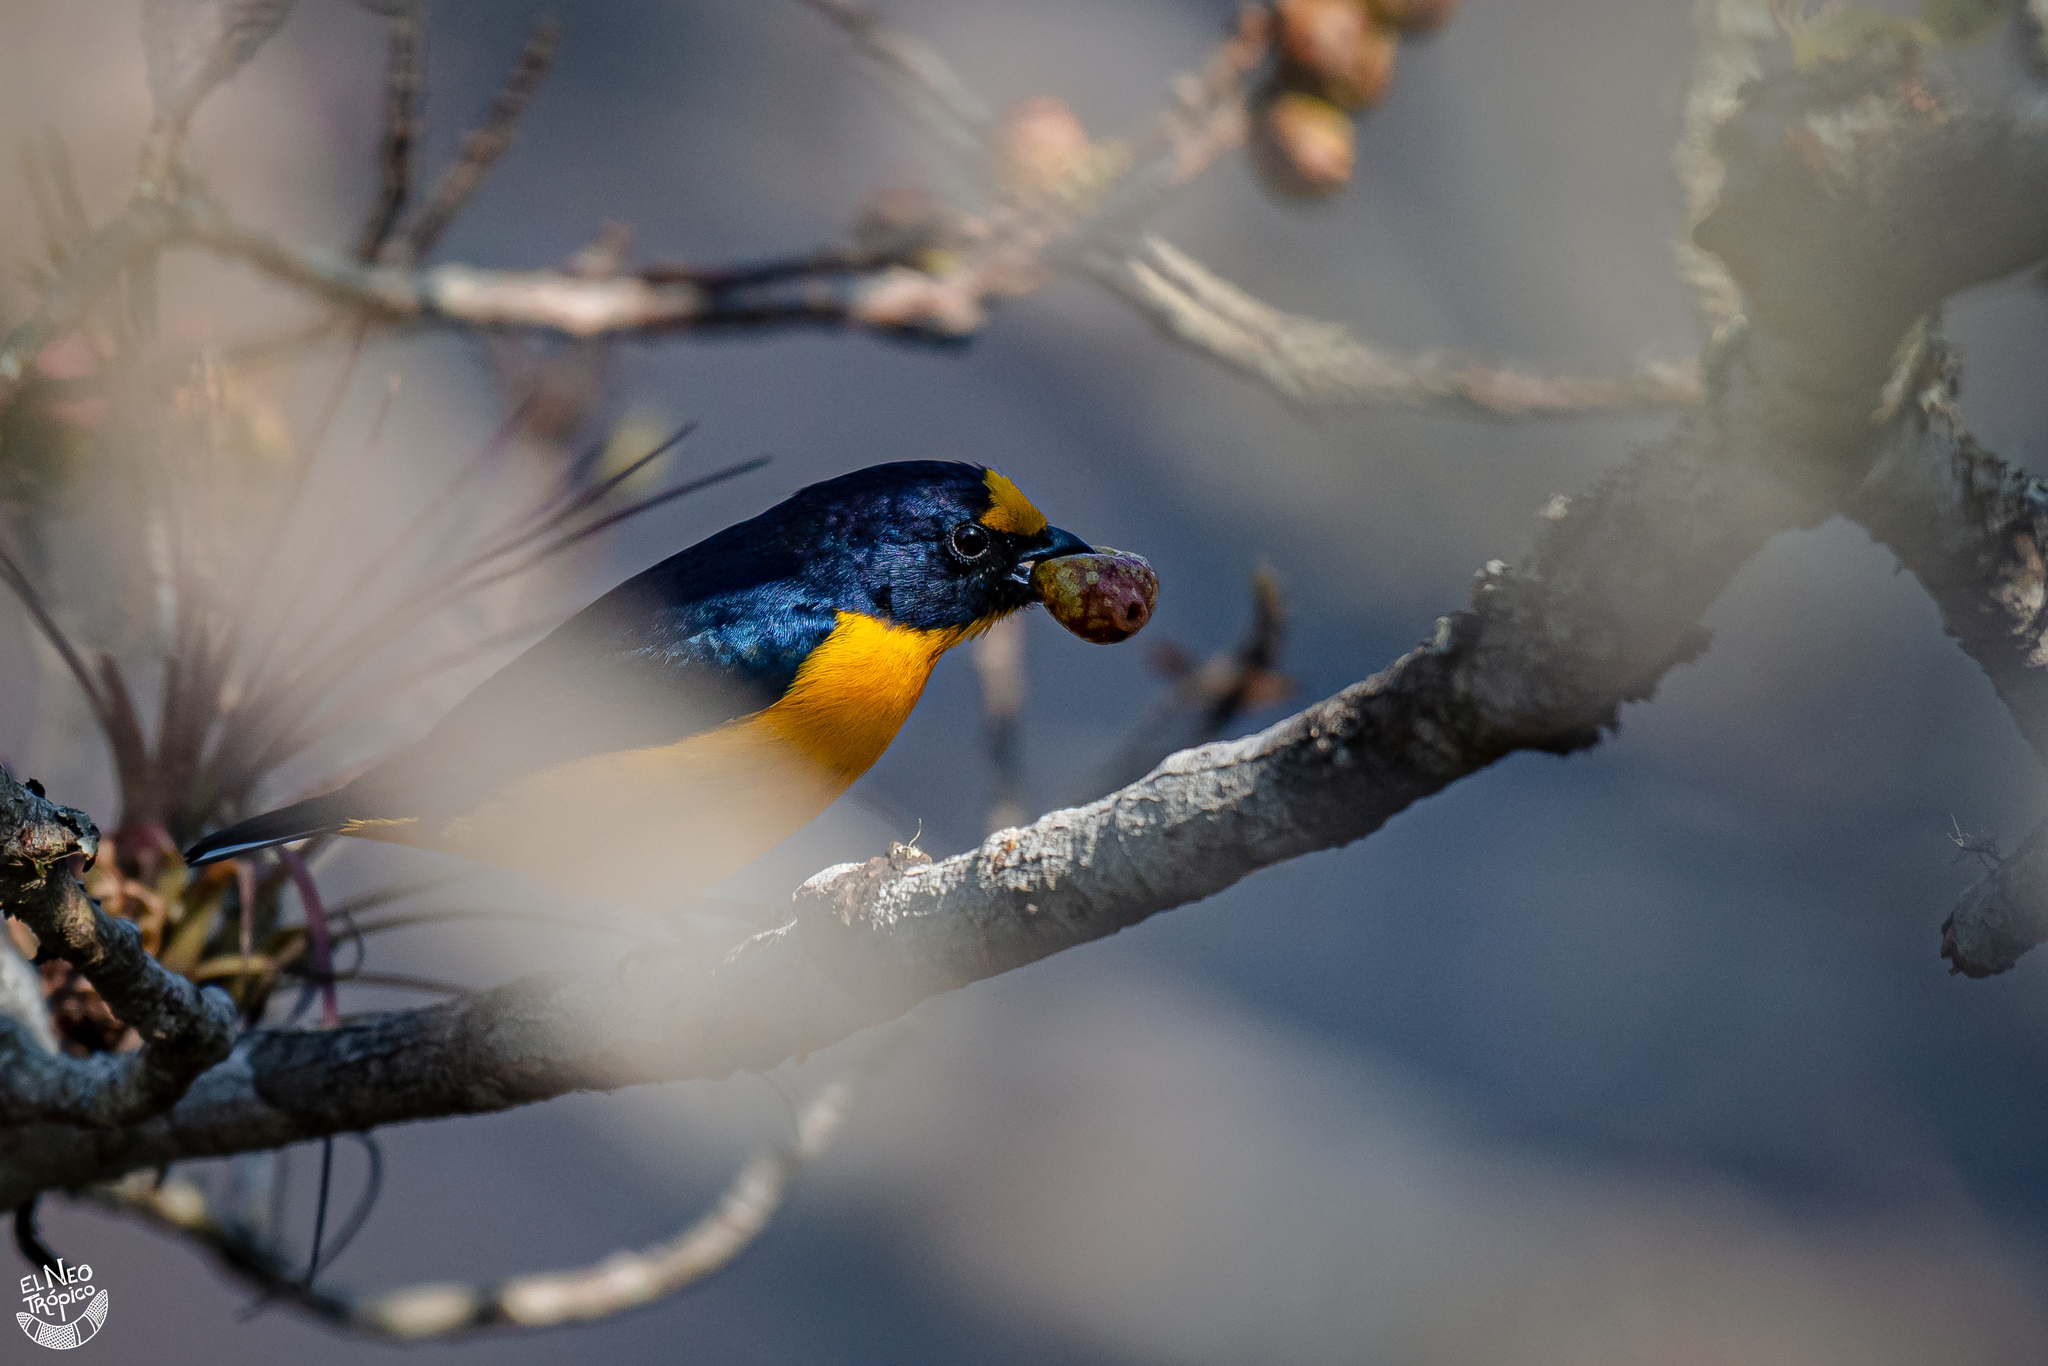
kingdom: Animalia
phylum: Chordata
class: Aves
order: Passeriformes
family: Fringillidae
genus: Euphonia
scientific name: Euphonia hirundinacea
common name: Yellow-throated euphonia
